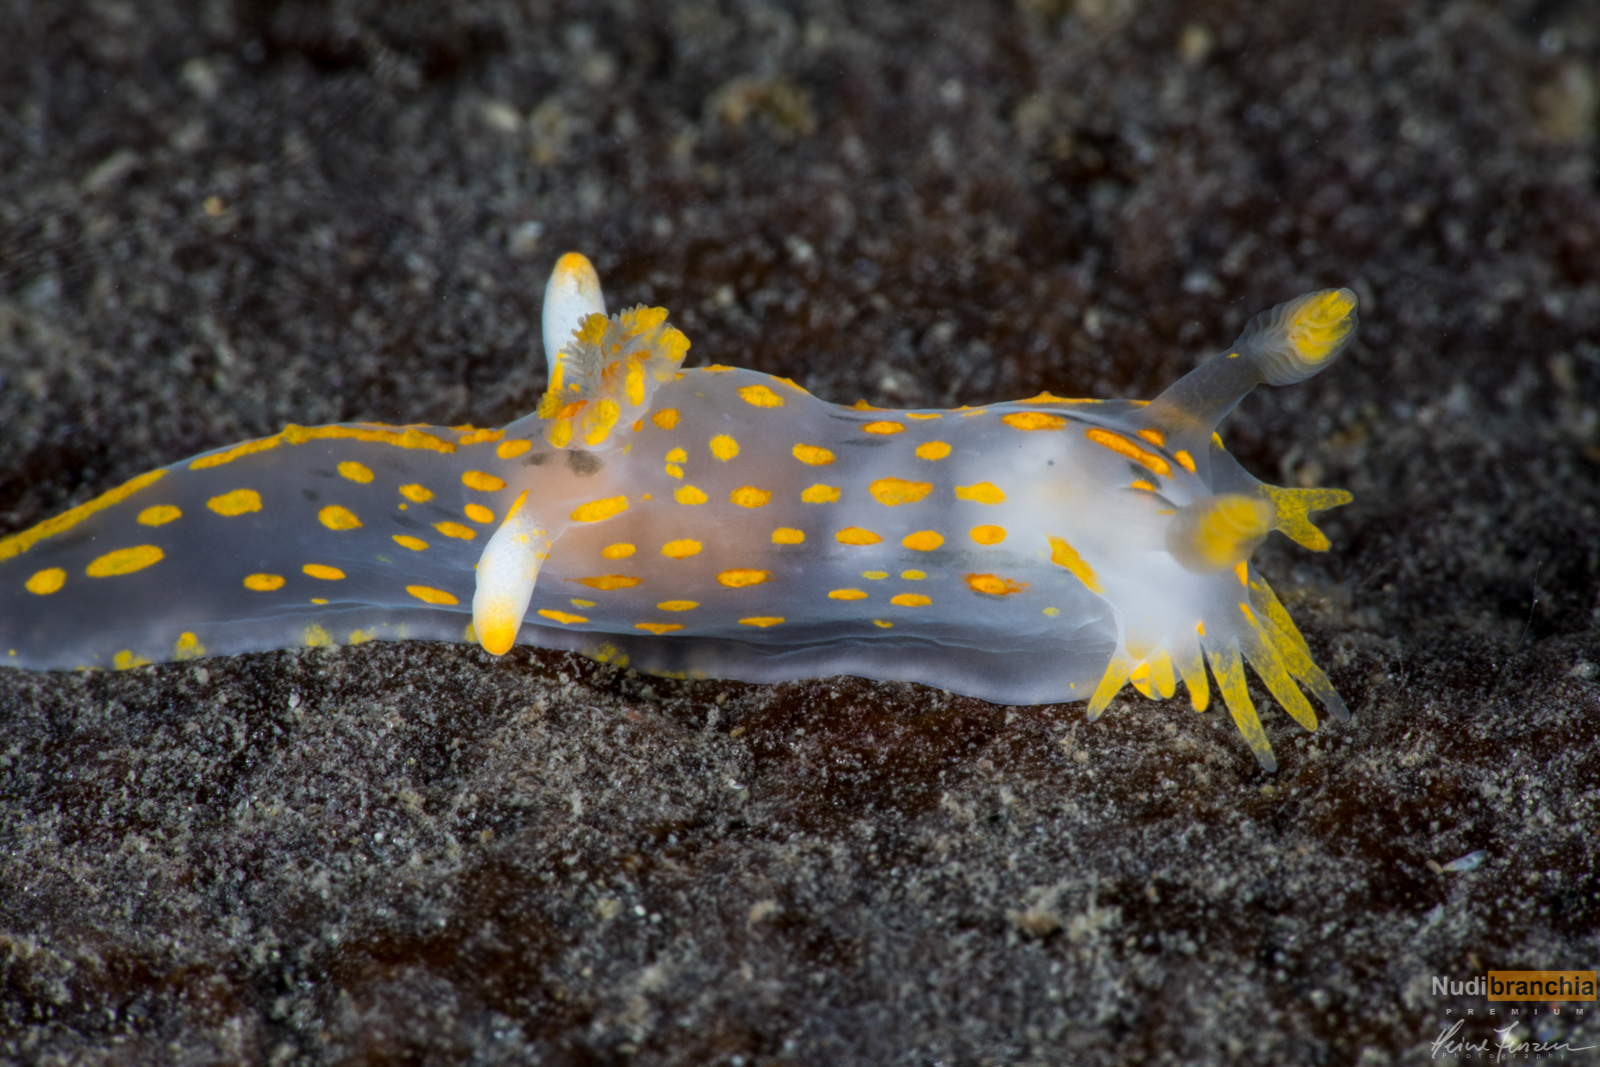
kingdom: Animalia
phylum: Mollusca
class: Gastropoda
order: Nudibranchia
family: Polyceridae
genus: Polycera
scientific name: Polycera quadrilineata
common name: Four-striped polycera
